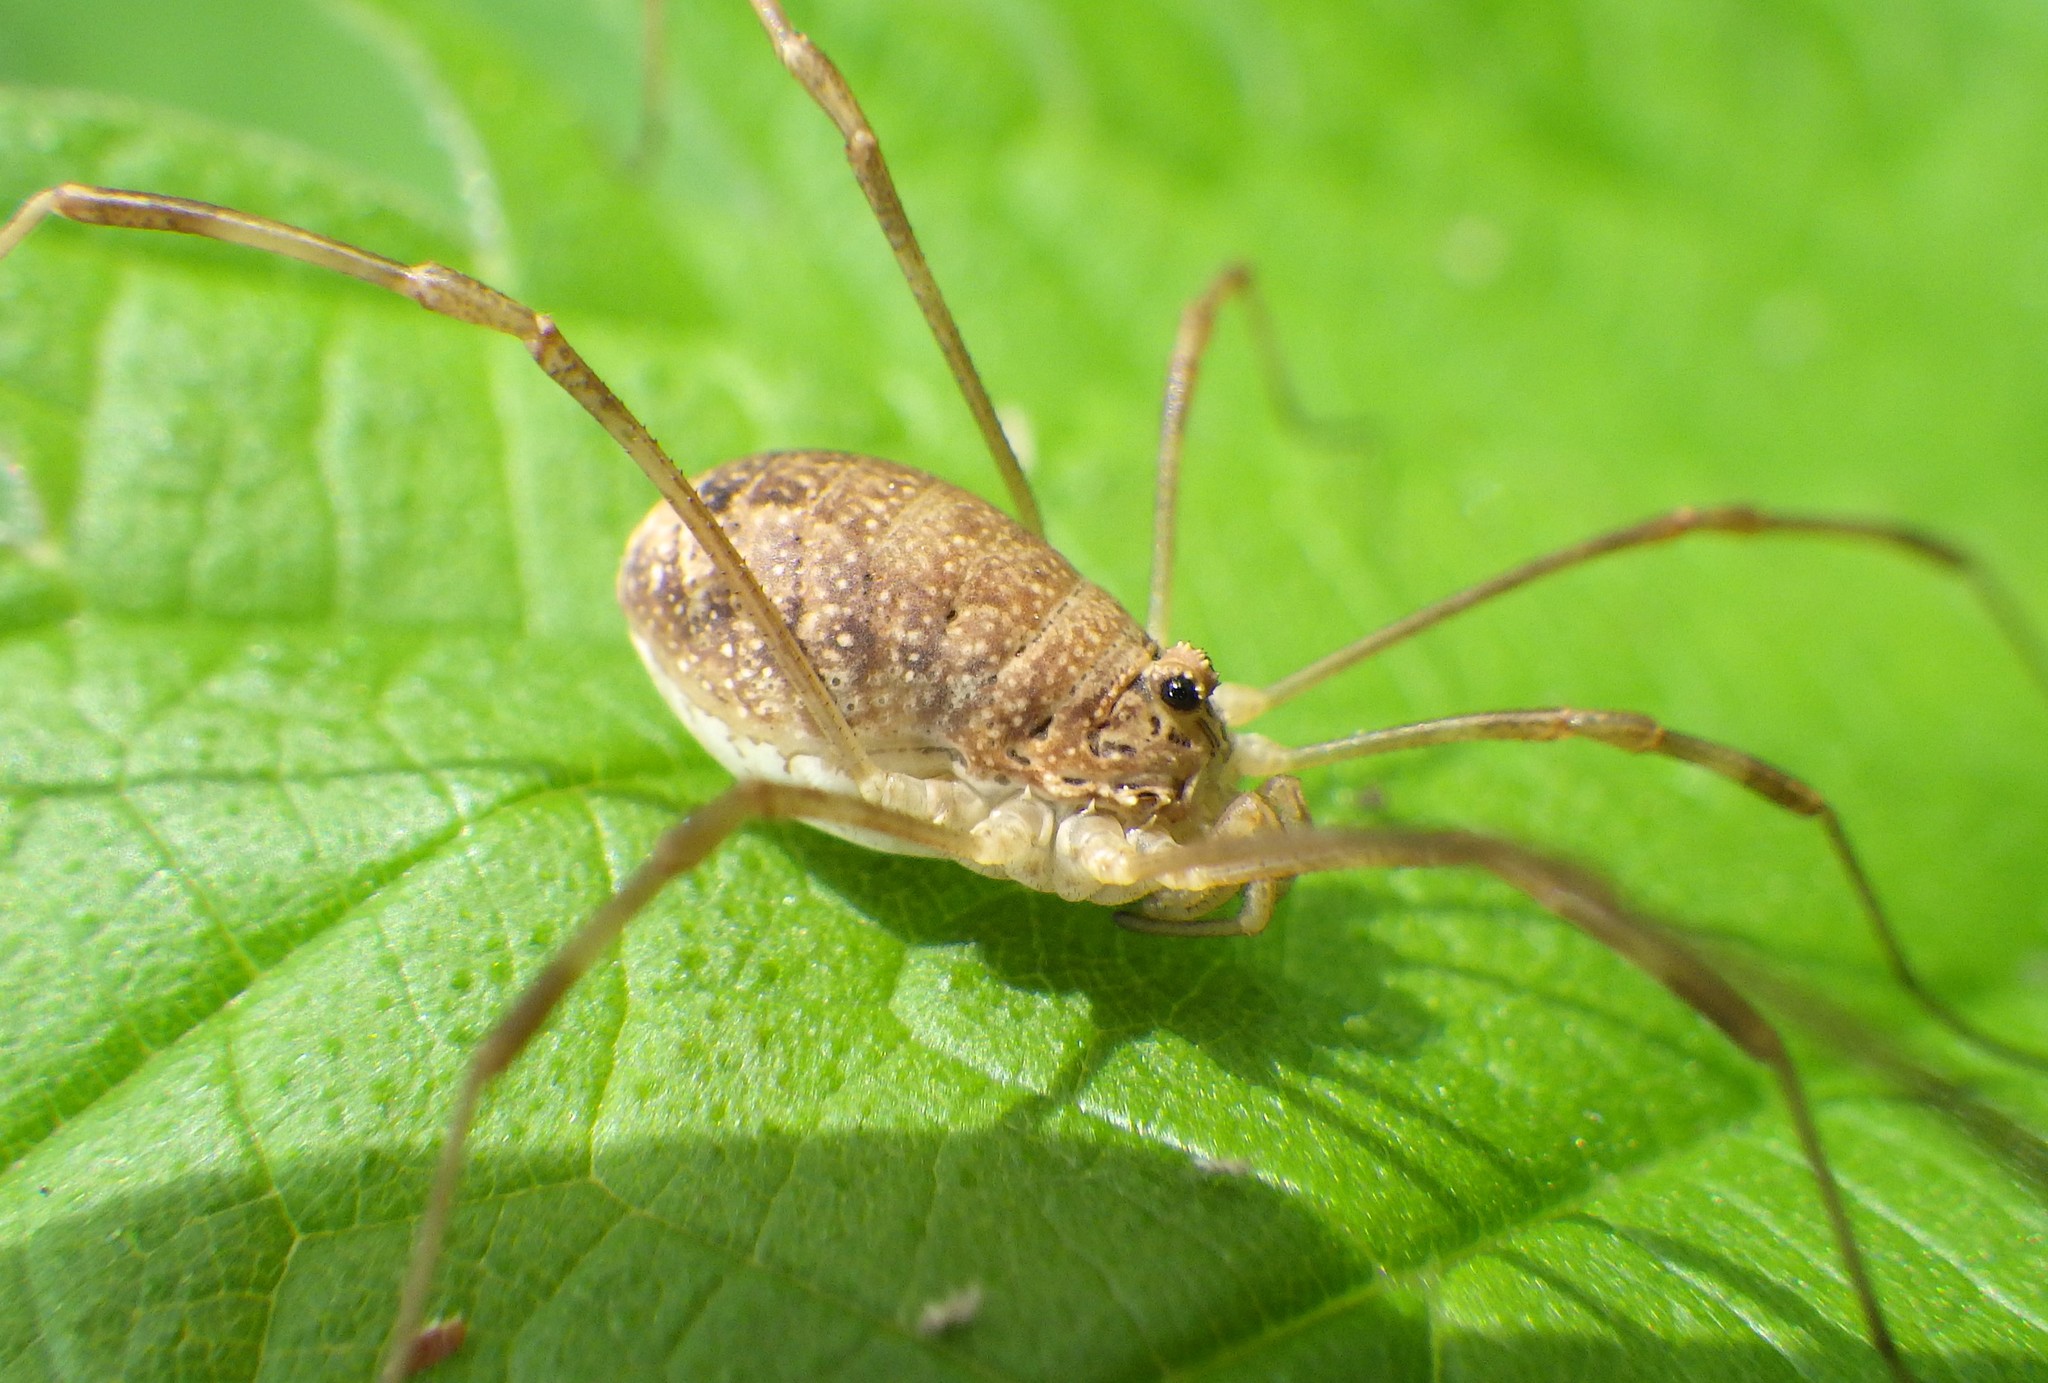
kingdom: Animalia
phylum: Arthropoda
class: Arachnida
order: Opiliones
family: Phalangiidae
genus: Rilaena
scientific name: Rilaena triangularis
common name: Spring harvestman
